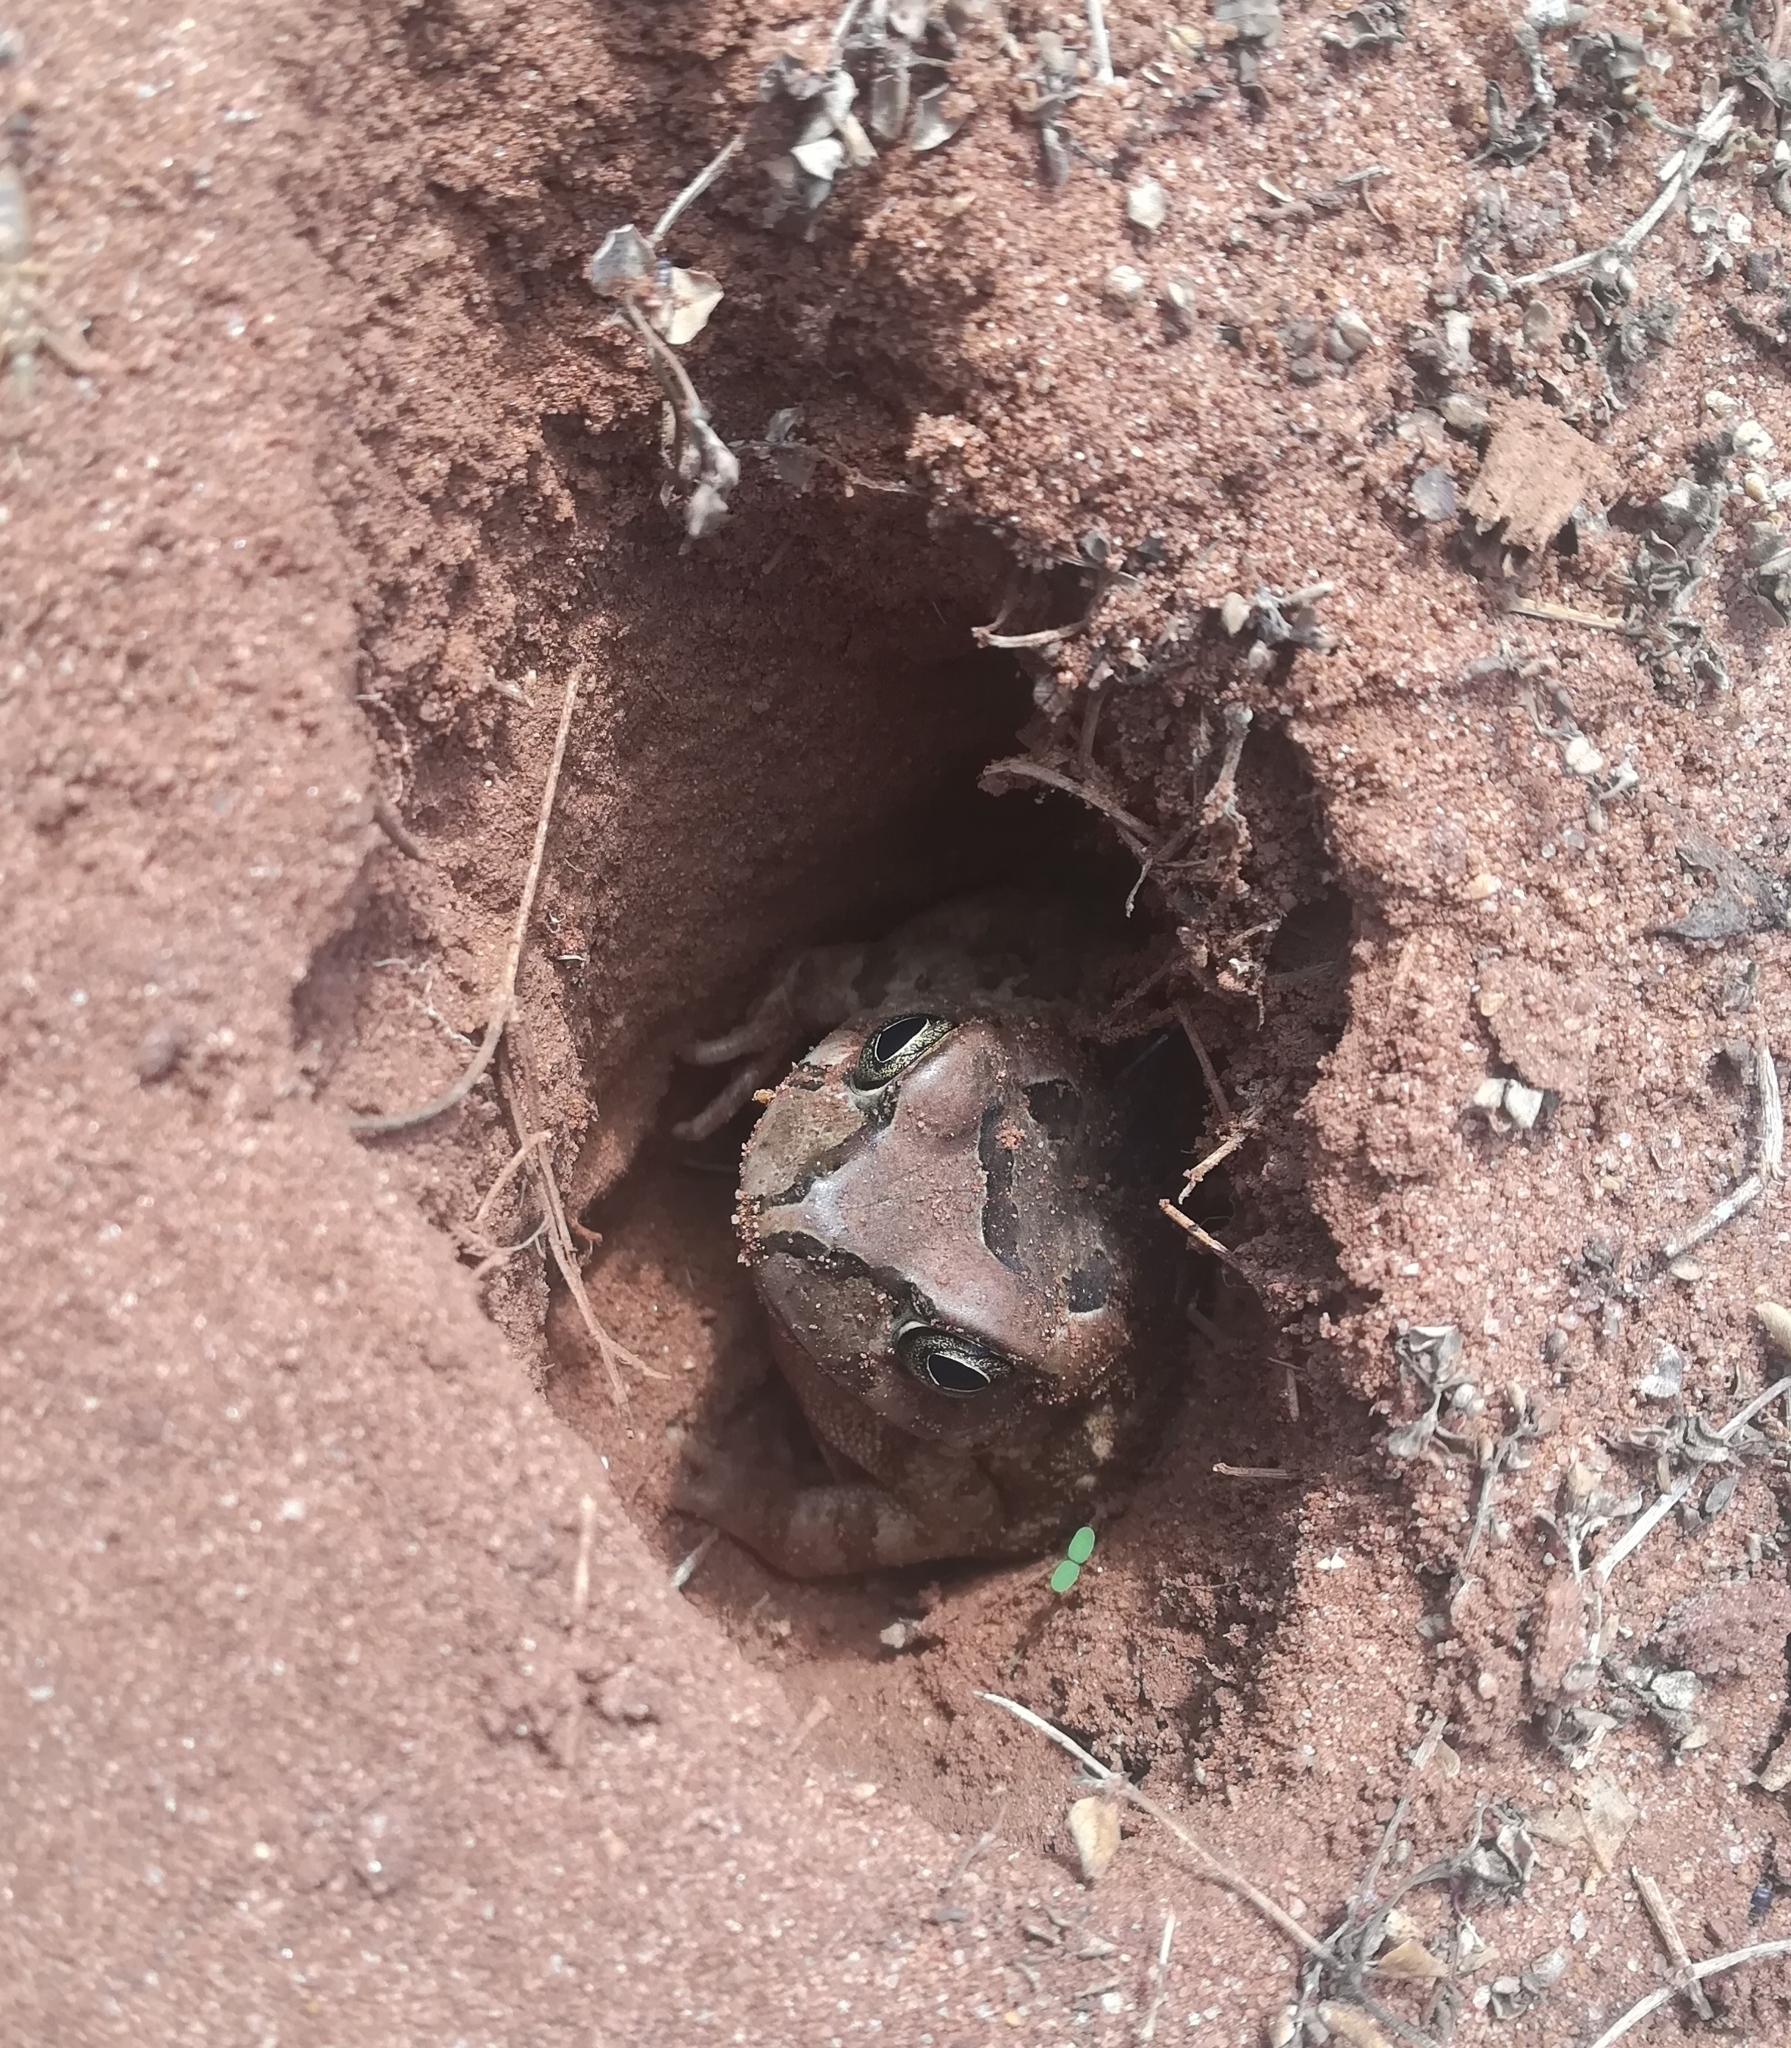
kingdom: Animalia
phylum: Chordata
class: Amphibia
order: Anura
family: Bufonidae
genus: Sclerophrys
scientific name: Sclerophrys capensis
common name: Ranger’s toad
